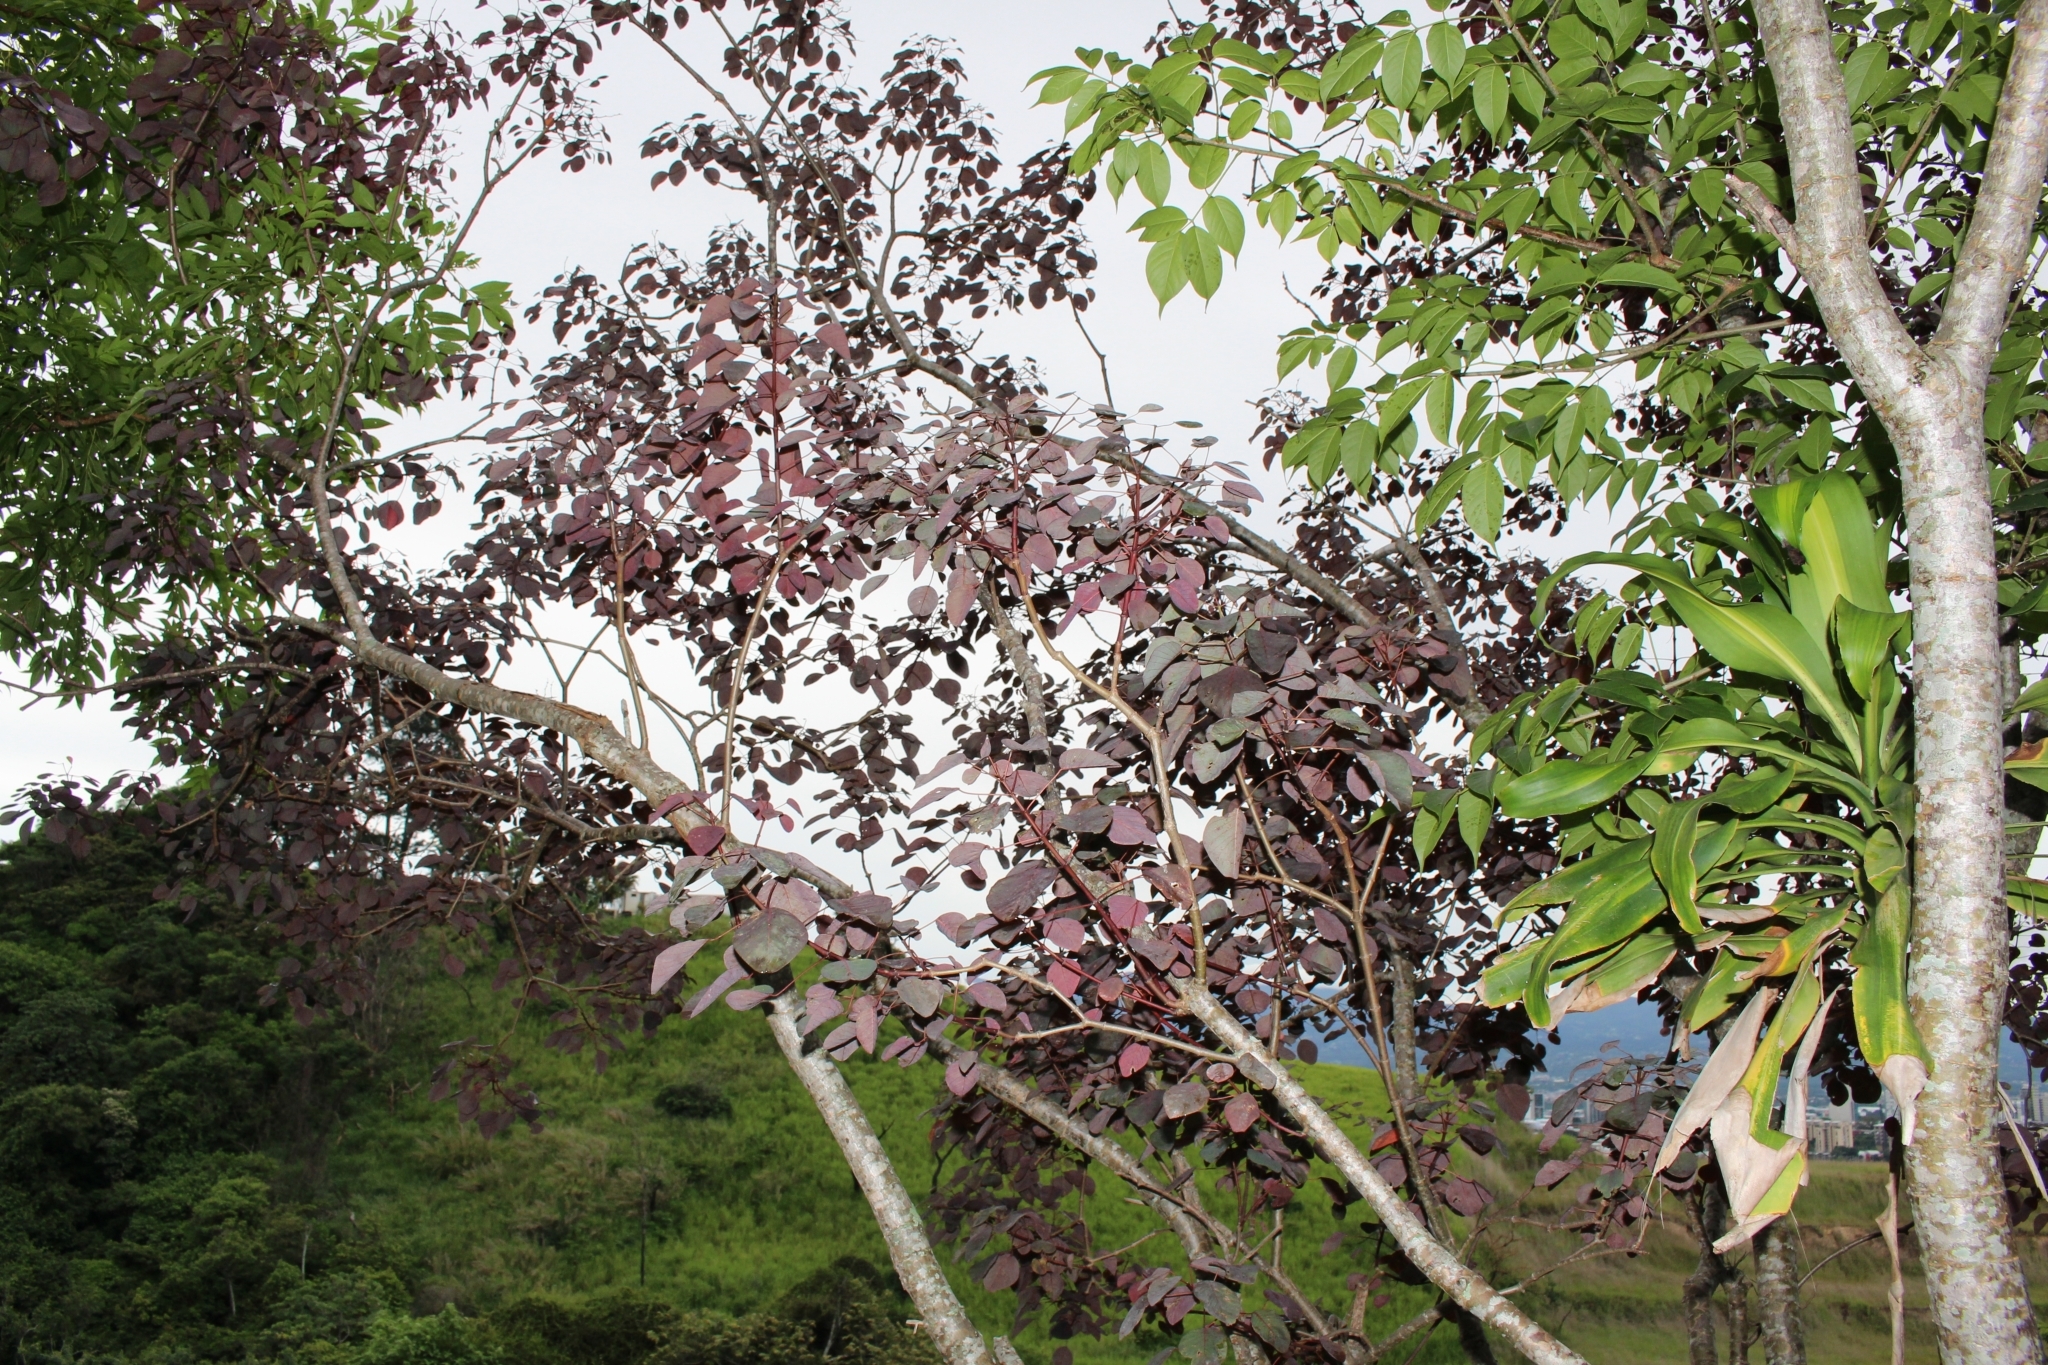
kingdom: Plantae
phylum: Tracheophyta
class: Magnoliopsida
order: Malpighiales
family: Euphorbiaceae
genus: Euphorbia
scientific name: Euphorbia cotinifolia
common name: Tropical smokebush
